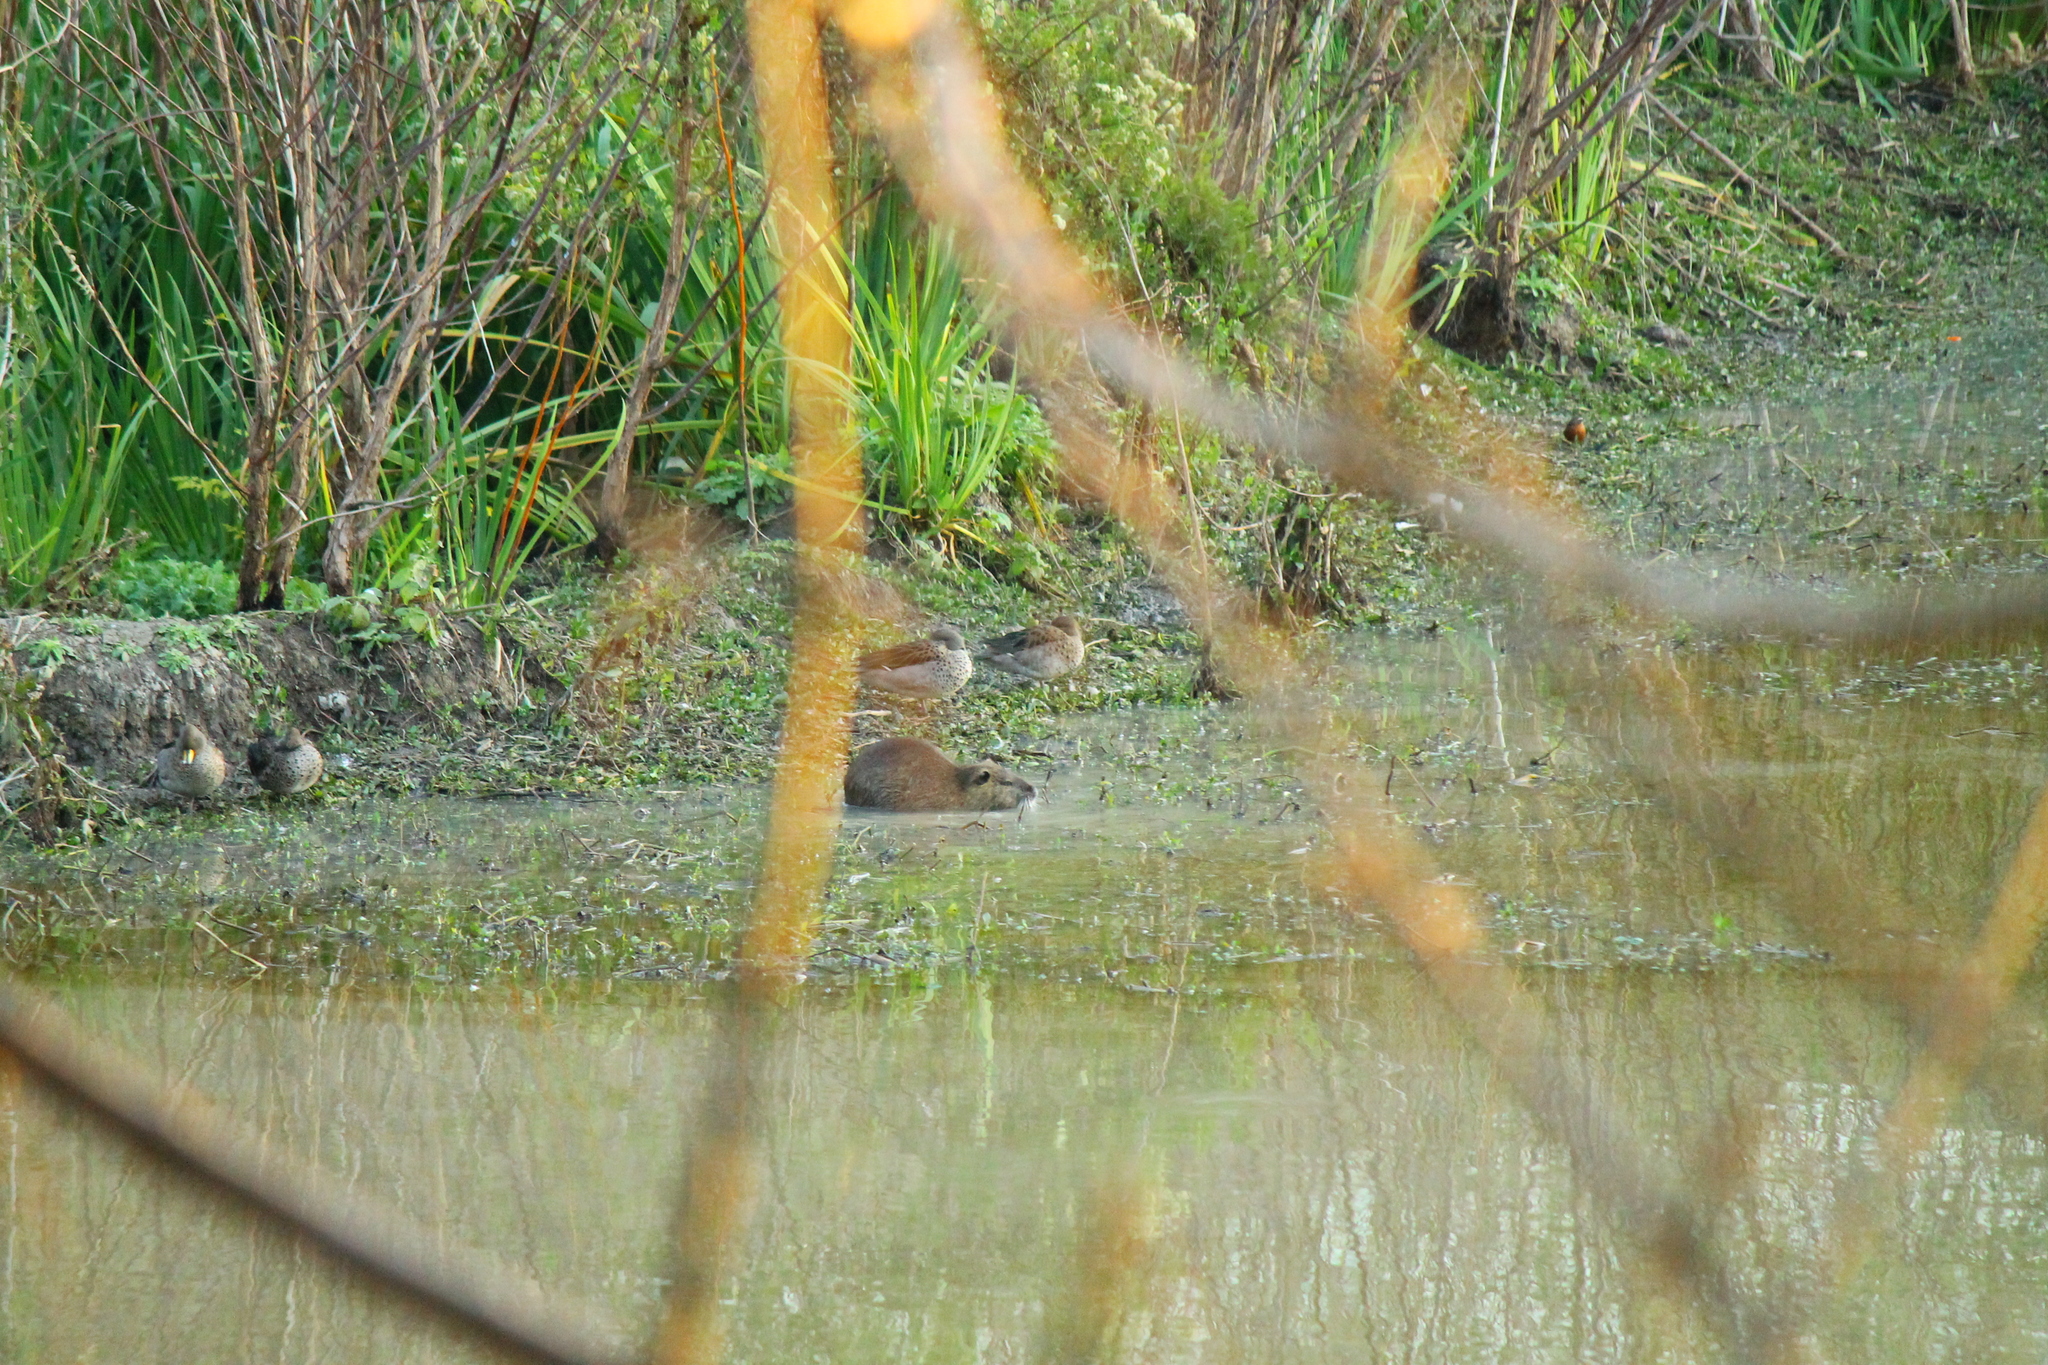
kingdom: Animalia
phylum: Chordata
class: Mammalia
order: Rodentia
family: Myocastoridae
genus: Myocastor
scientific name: Myocastor coypus
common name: Coypu
